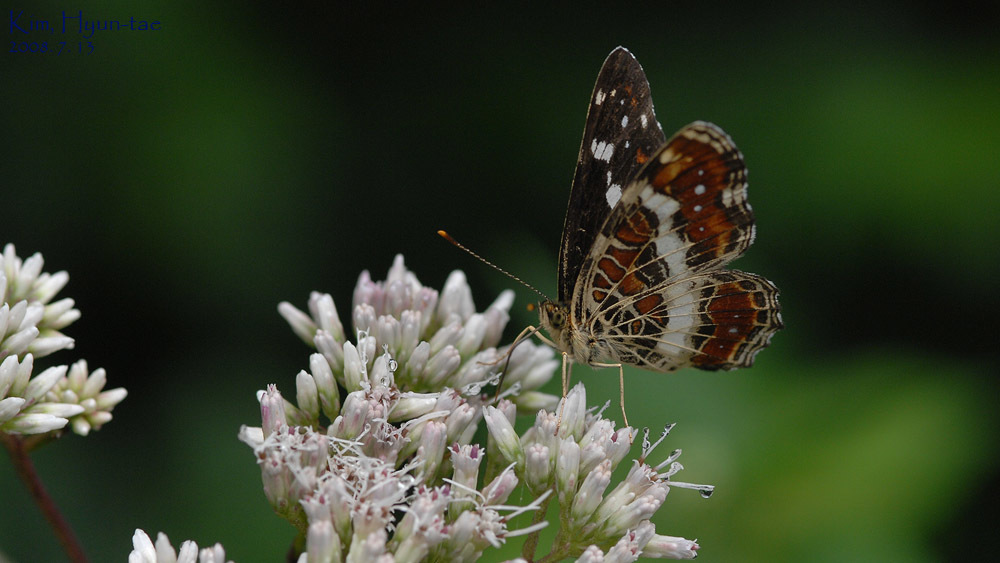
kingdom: Animalia
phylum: Arthropoda
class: Insecta
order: Lepidoptera
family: Nymphalidae
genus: Araschnia
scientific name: Araschnia burejana
